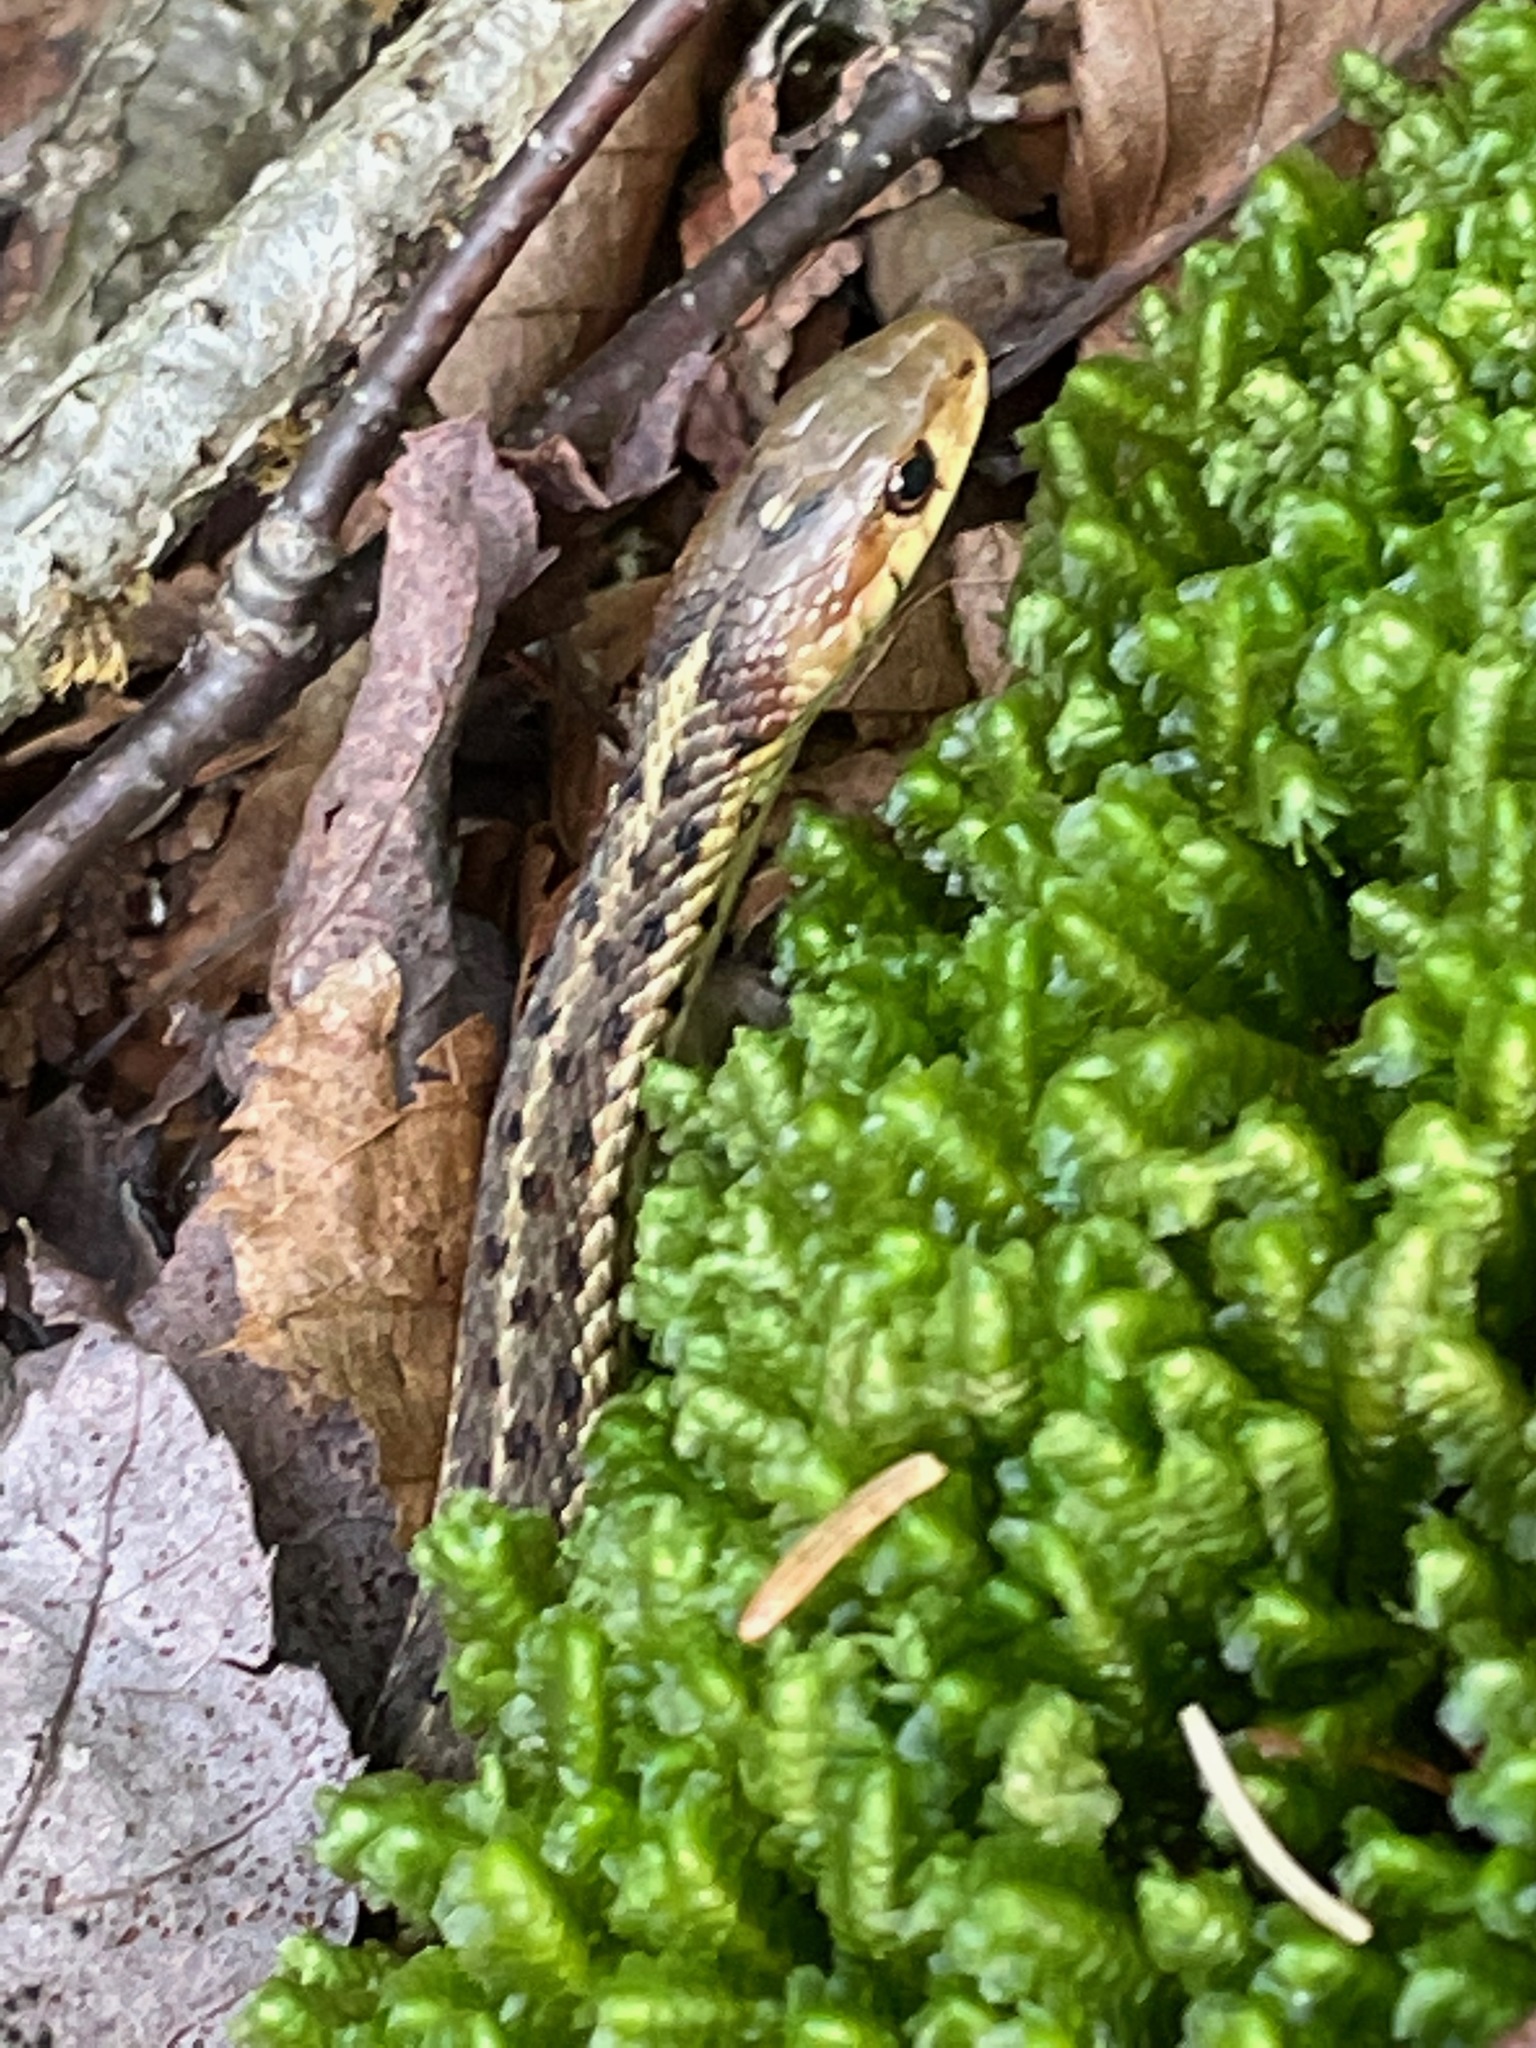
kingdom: Animalia
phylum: Chordata
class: Squamata
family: Colubridae
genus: Thamnophis
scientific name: Thamnophis sirtalis
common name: Common garter snake
